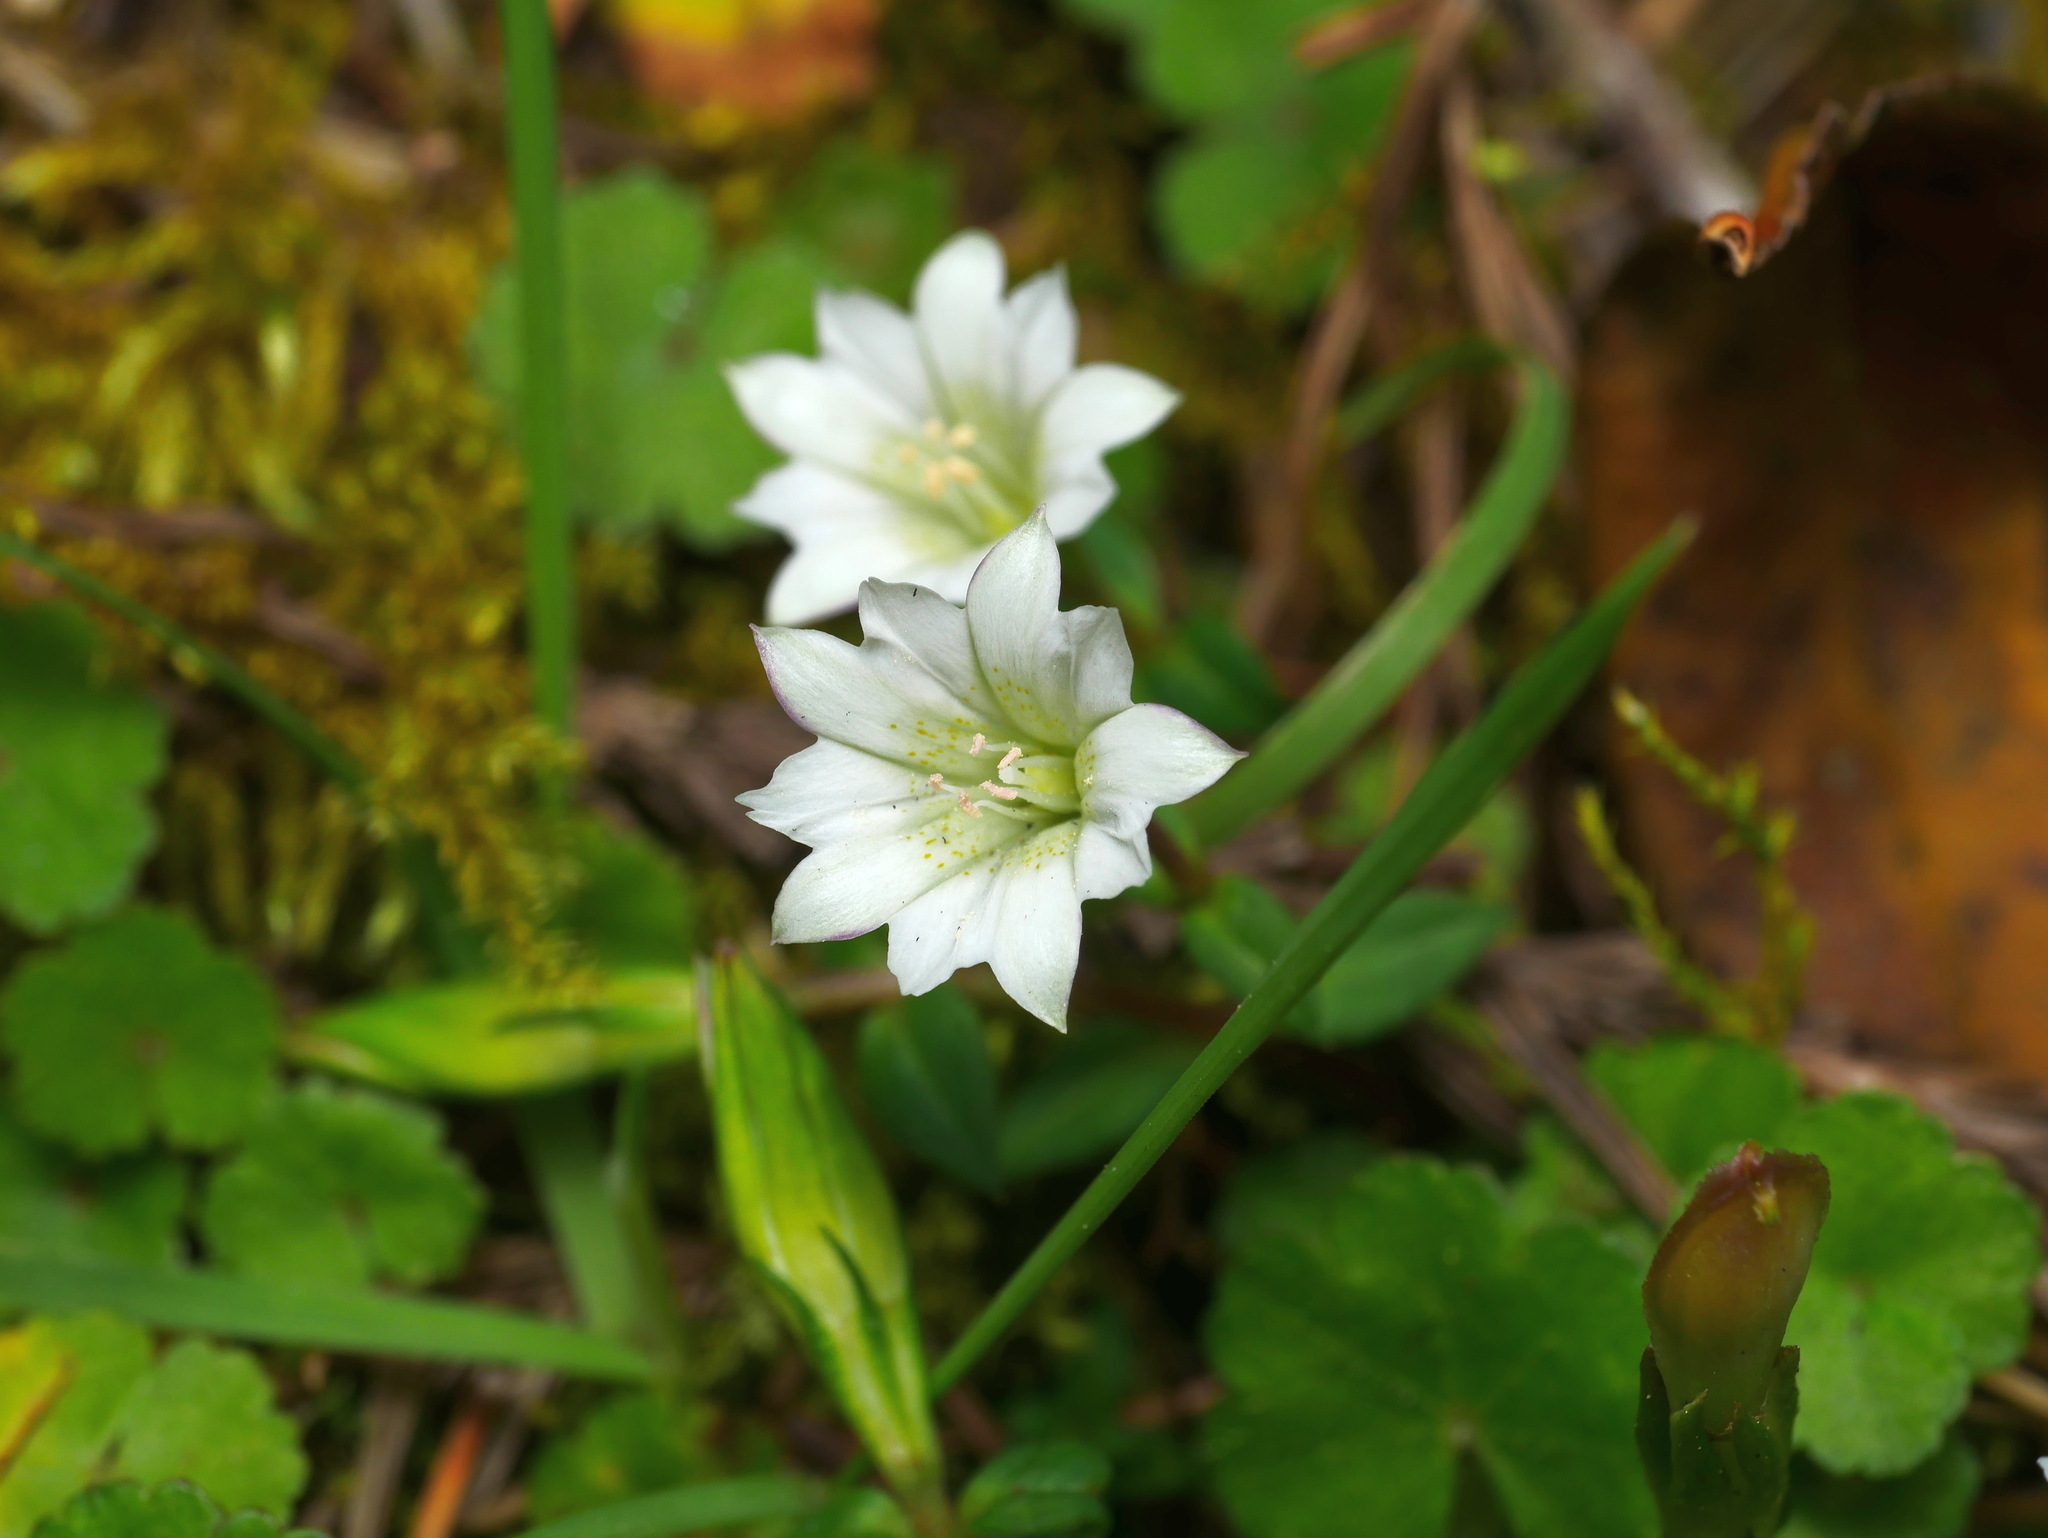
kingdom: Plantae
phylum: Tracheophyta
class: Magnoliopsida
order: Gentianales
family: Gentianaceae
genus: Gentiana
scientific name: Gentiana flavomaculata
